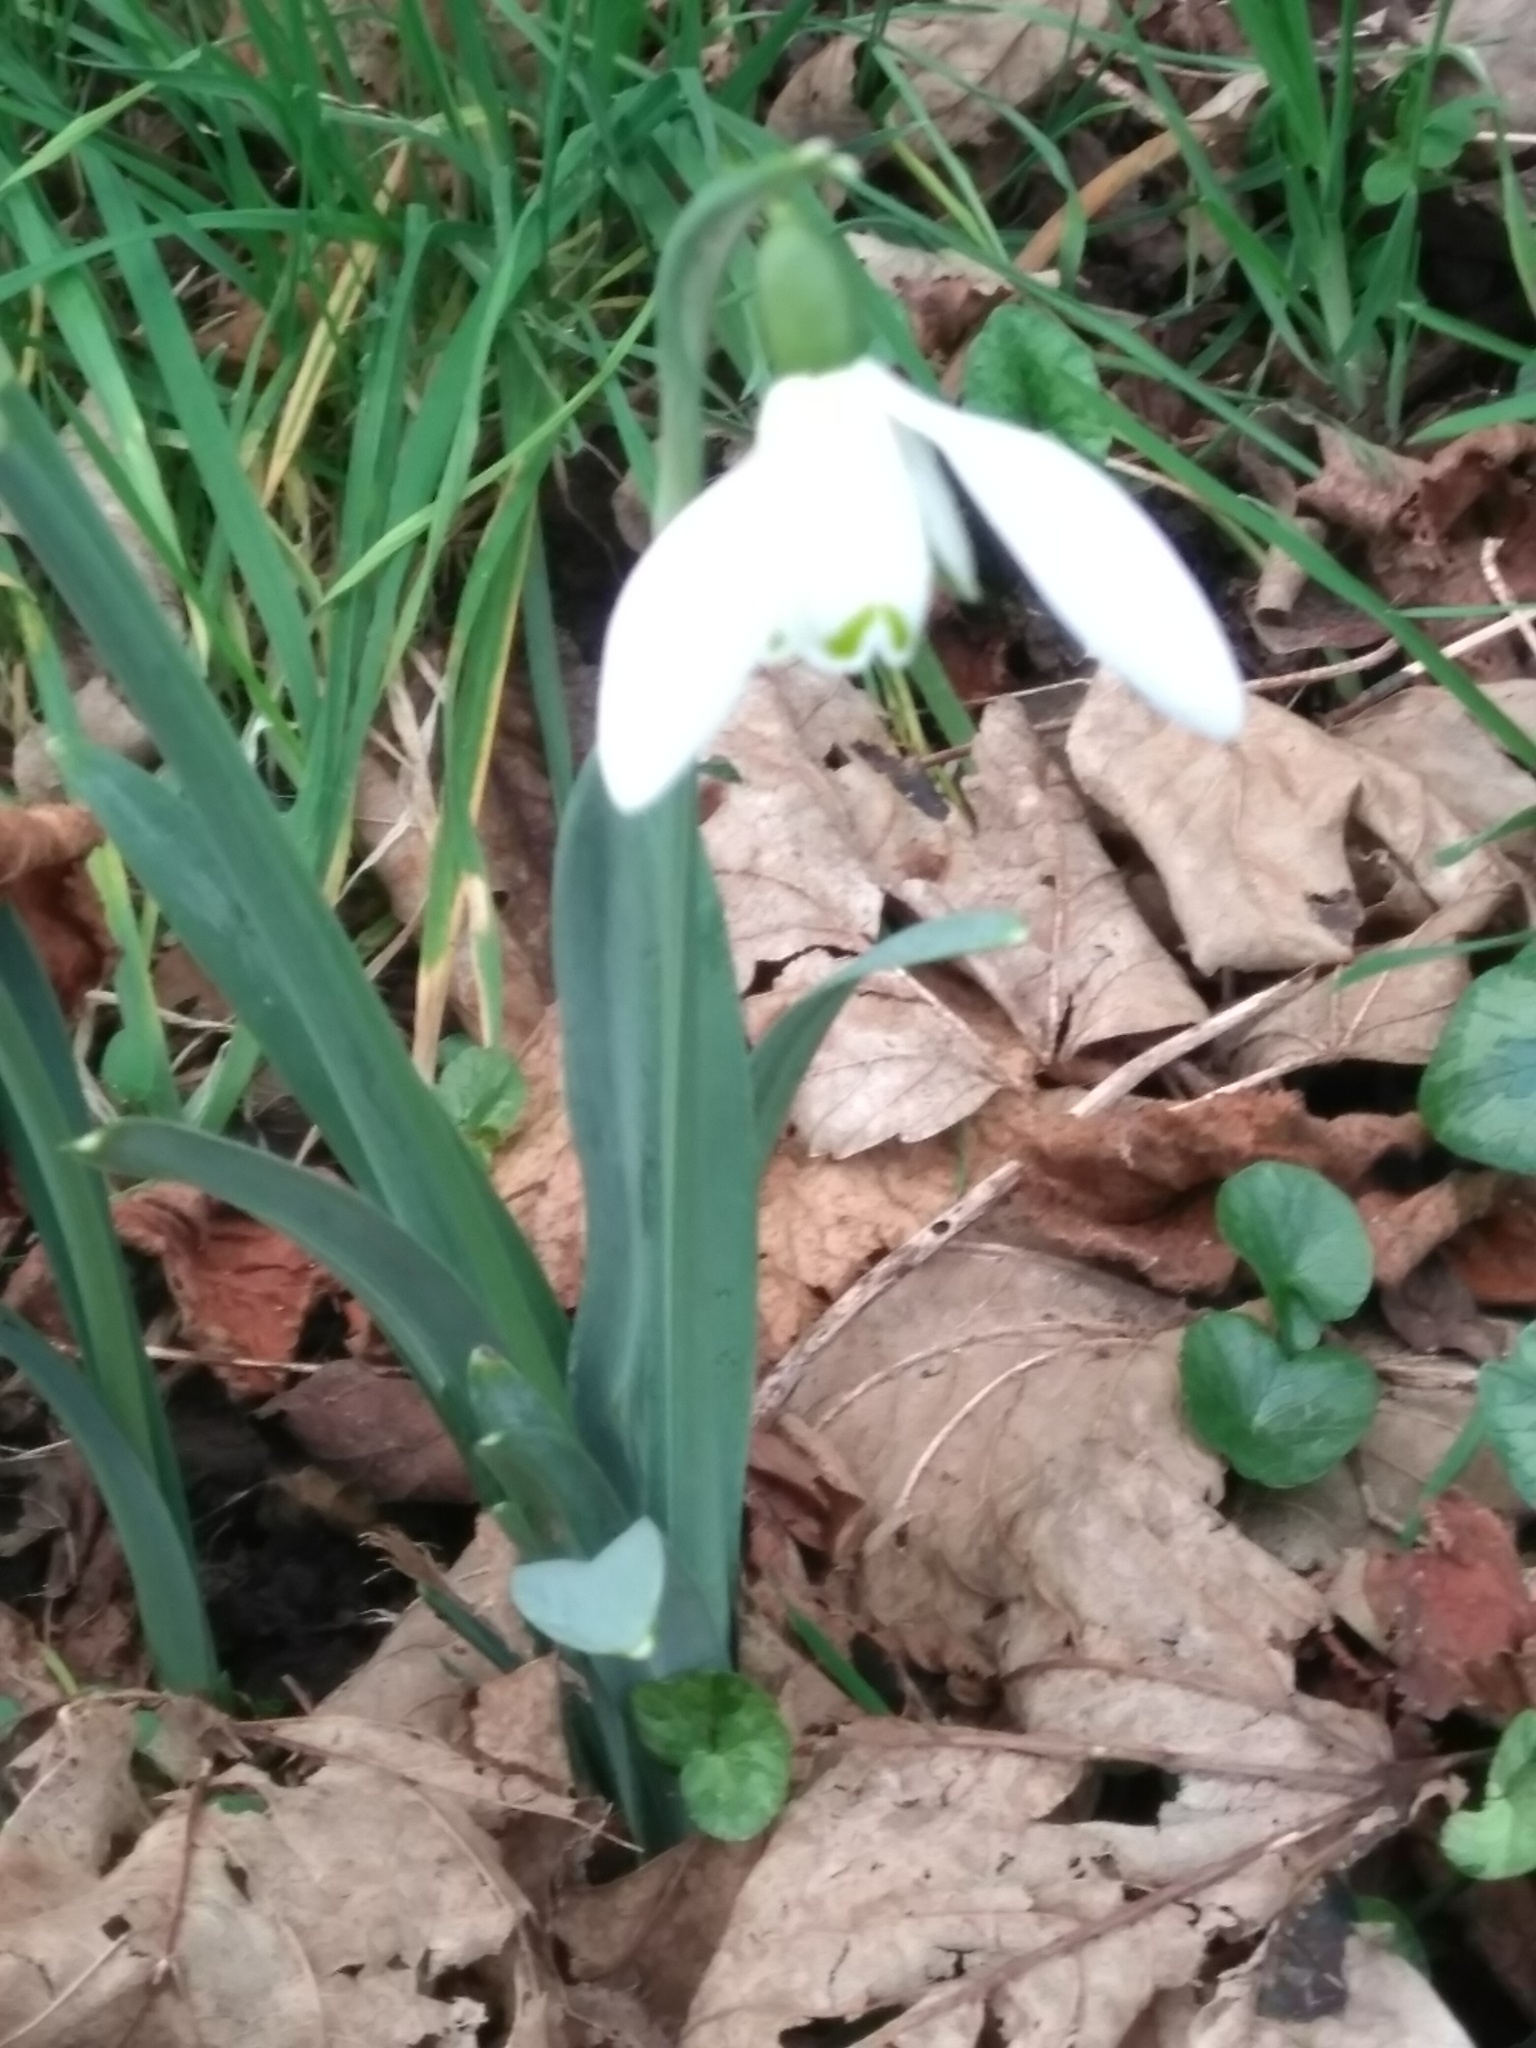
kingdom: Plantae
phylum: Tracheophyta
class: Liliopsida
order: Asparagales
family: Amaryllidaceae
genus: Galanthus
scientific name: Galanthus nivalis
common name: Snowdrop
